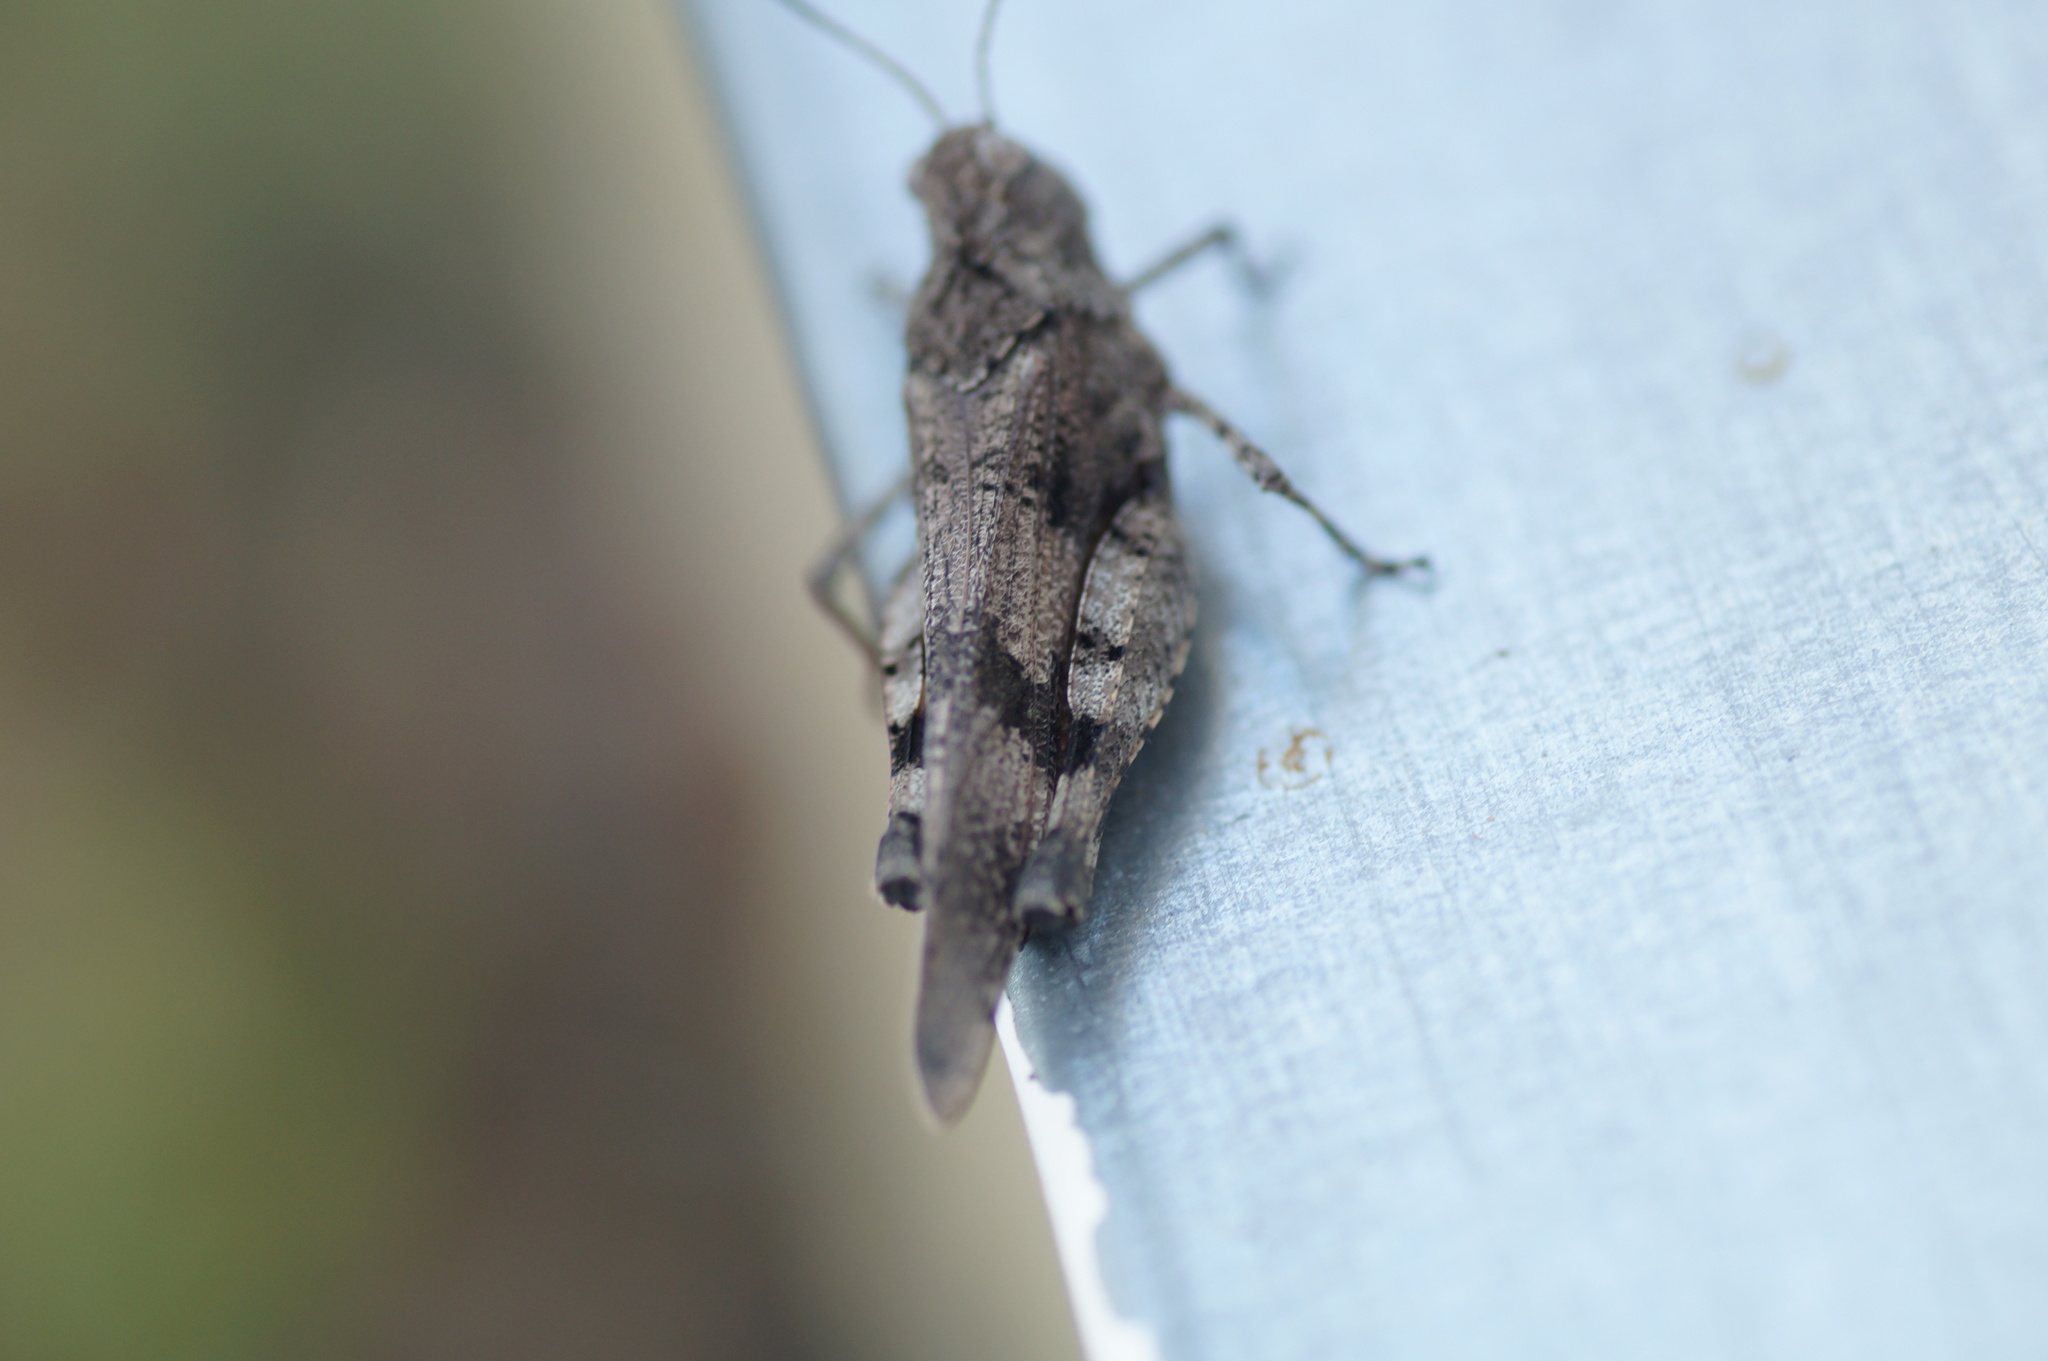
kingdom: Animalia
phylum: Arthropoda
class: Insecta
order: Orthoptera
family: Acrididae
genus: Oedipoda
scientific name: Oedipoda caerulescens
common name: Blue-winged grasshopper
